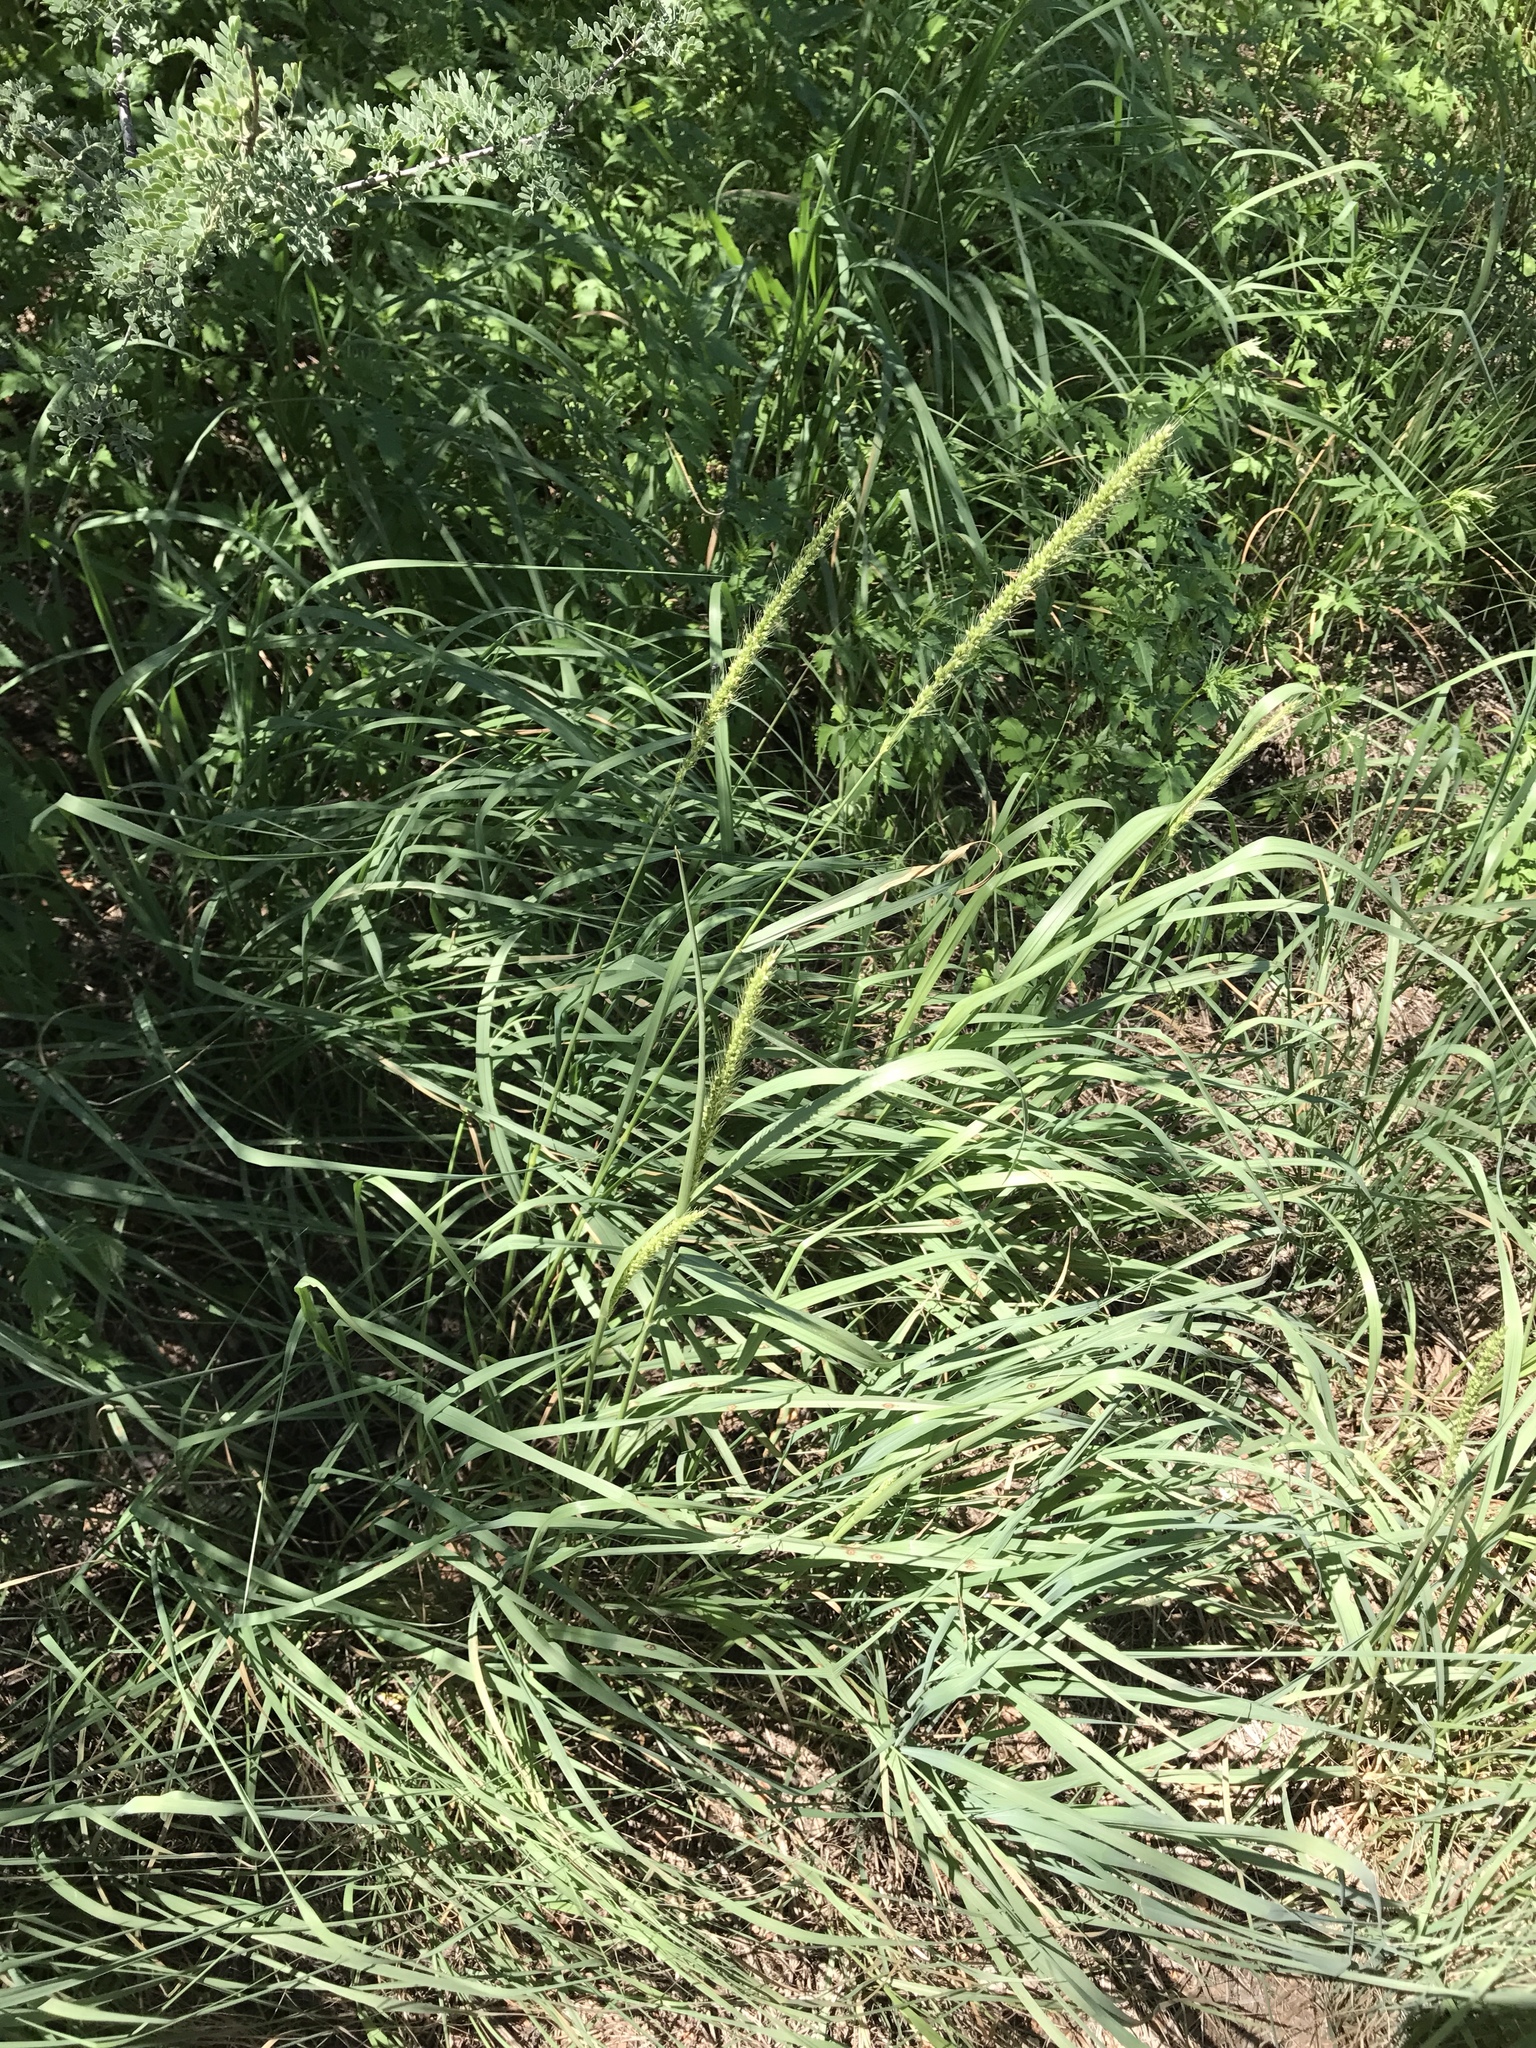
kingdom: Plantae
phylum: Tracheophyta
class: Liliopsida
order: Poales
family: Poaceae
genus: Setaria
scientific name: Setaria leucopila
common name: Plains bristle grass
